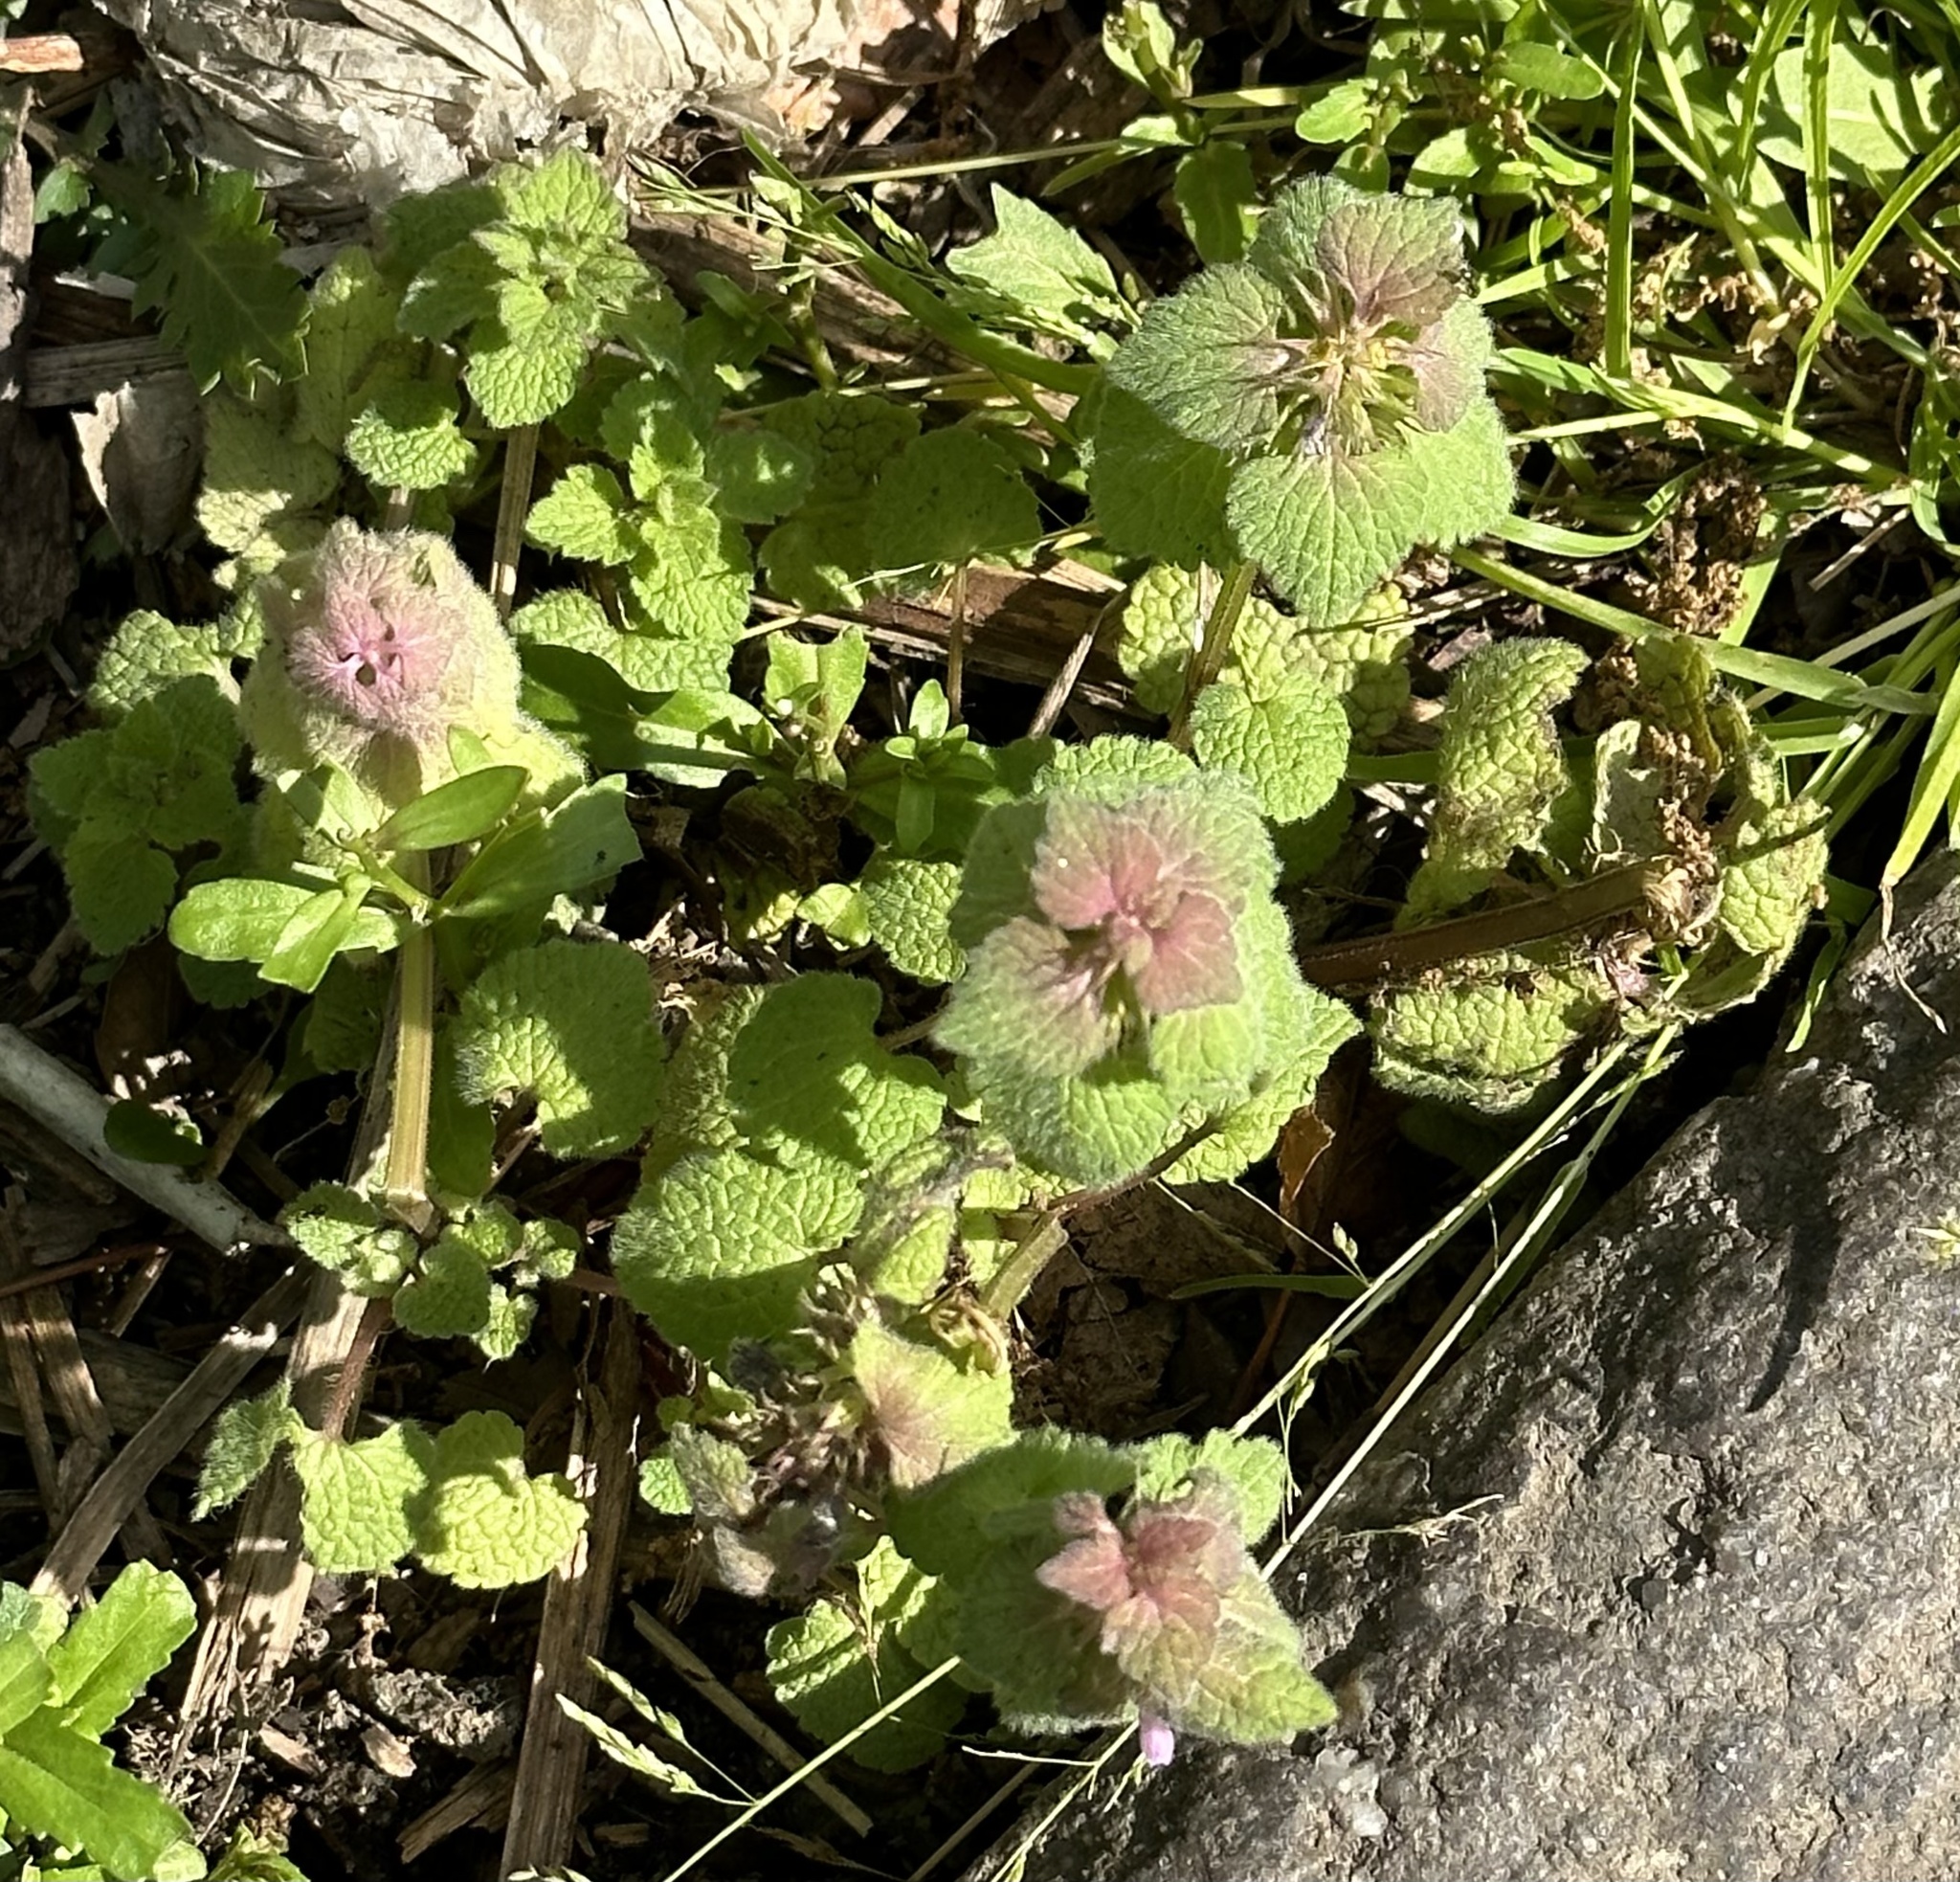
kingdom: Plantae
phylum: Tracheophyta
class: Magnoliopsida
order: Lamiales
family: Lamiaceae
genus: Lamium
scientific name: Lamium purpureum
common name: Red dead-nettle
